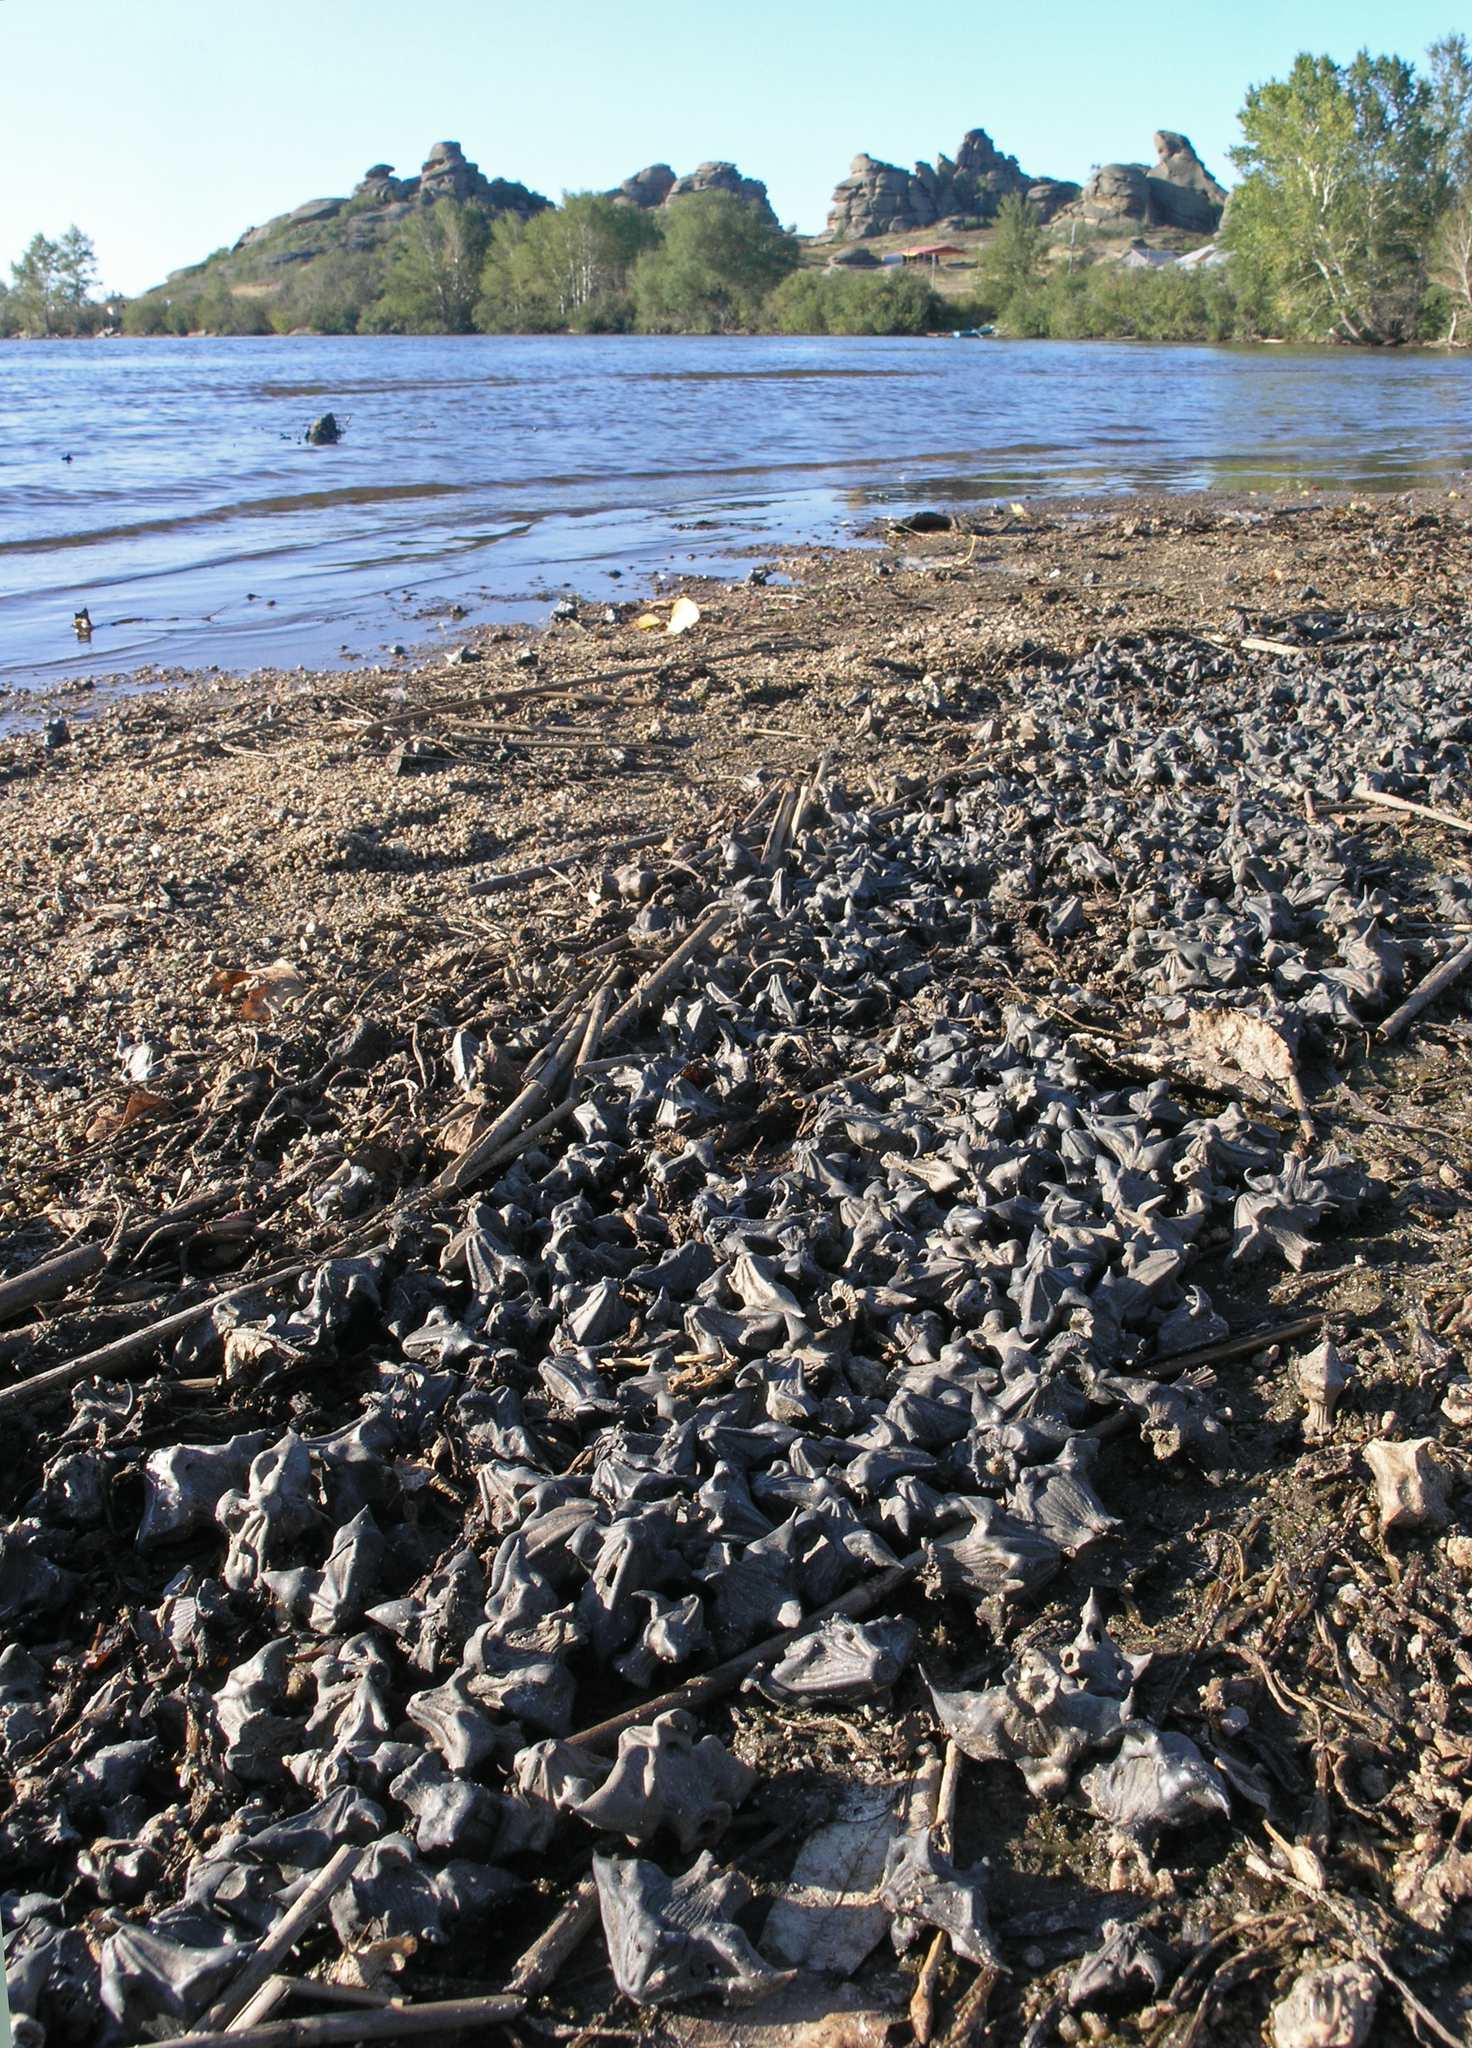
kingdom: Plantae
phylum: Tracheophyta
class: Magnoliopsida
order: Myrtales
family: Lythraceae
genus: Trapa
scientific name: Trapa natans
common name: Water chestnut
